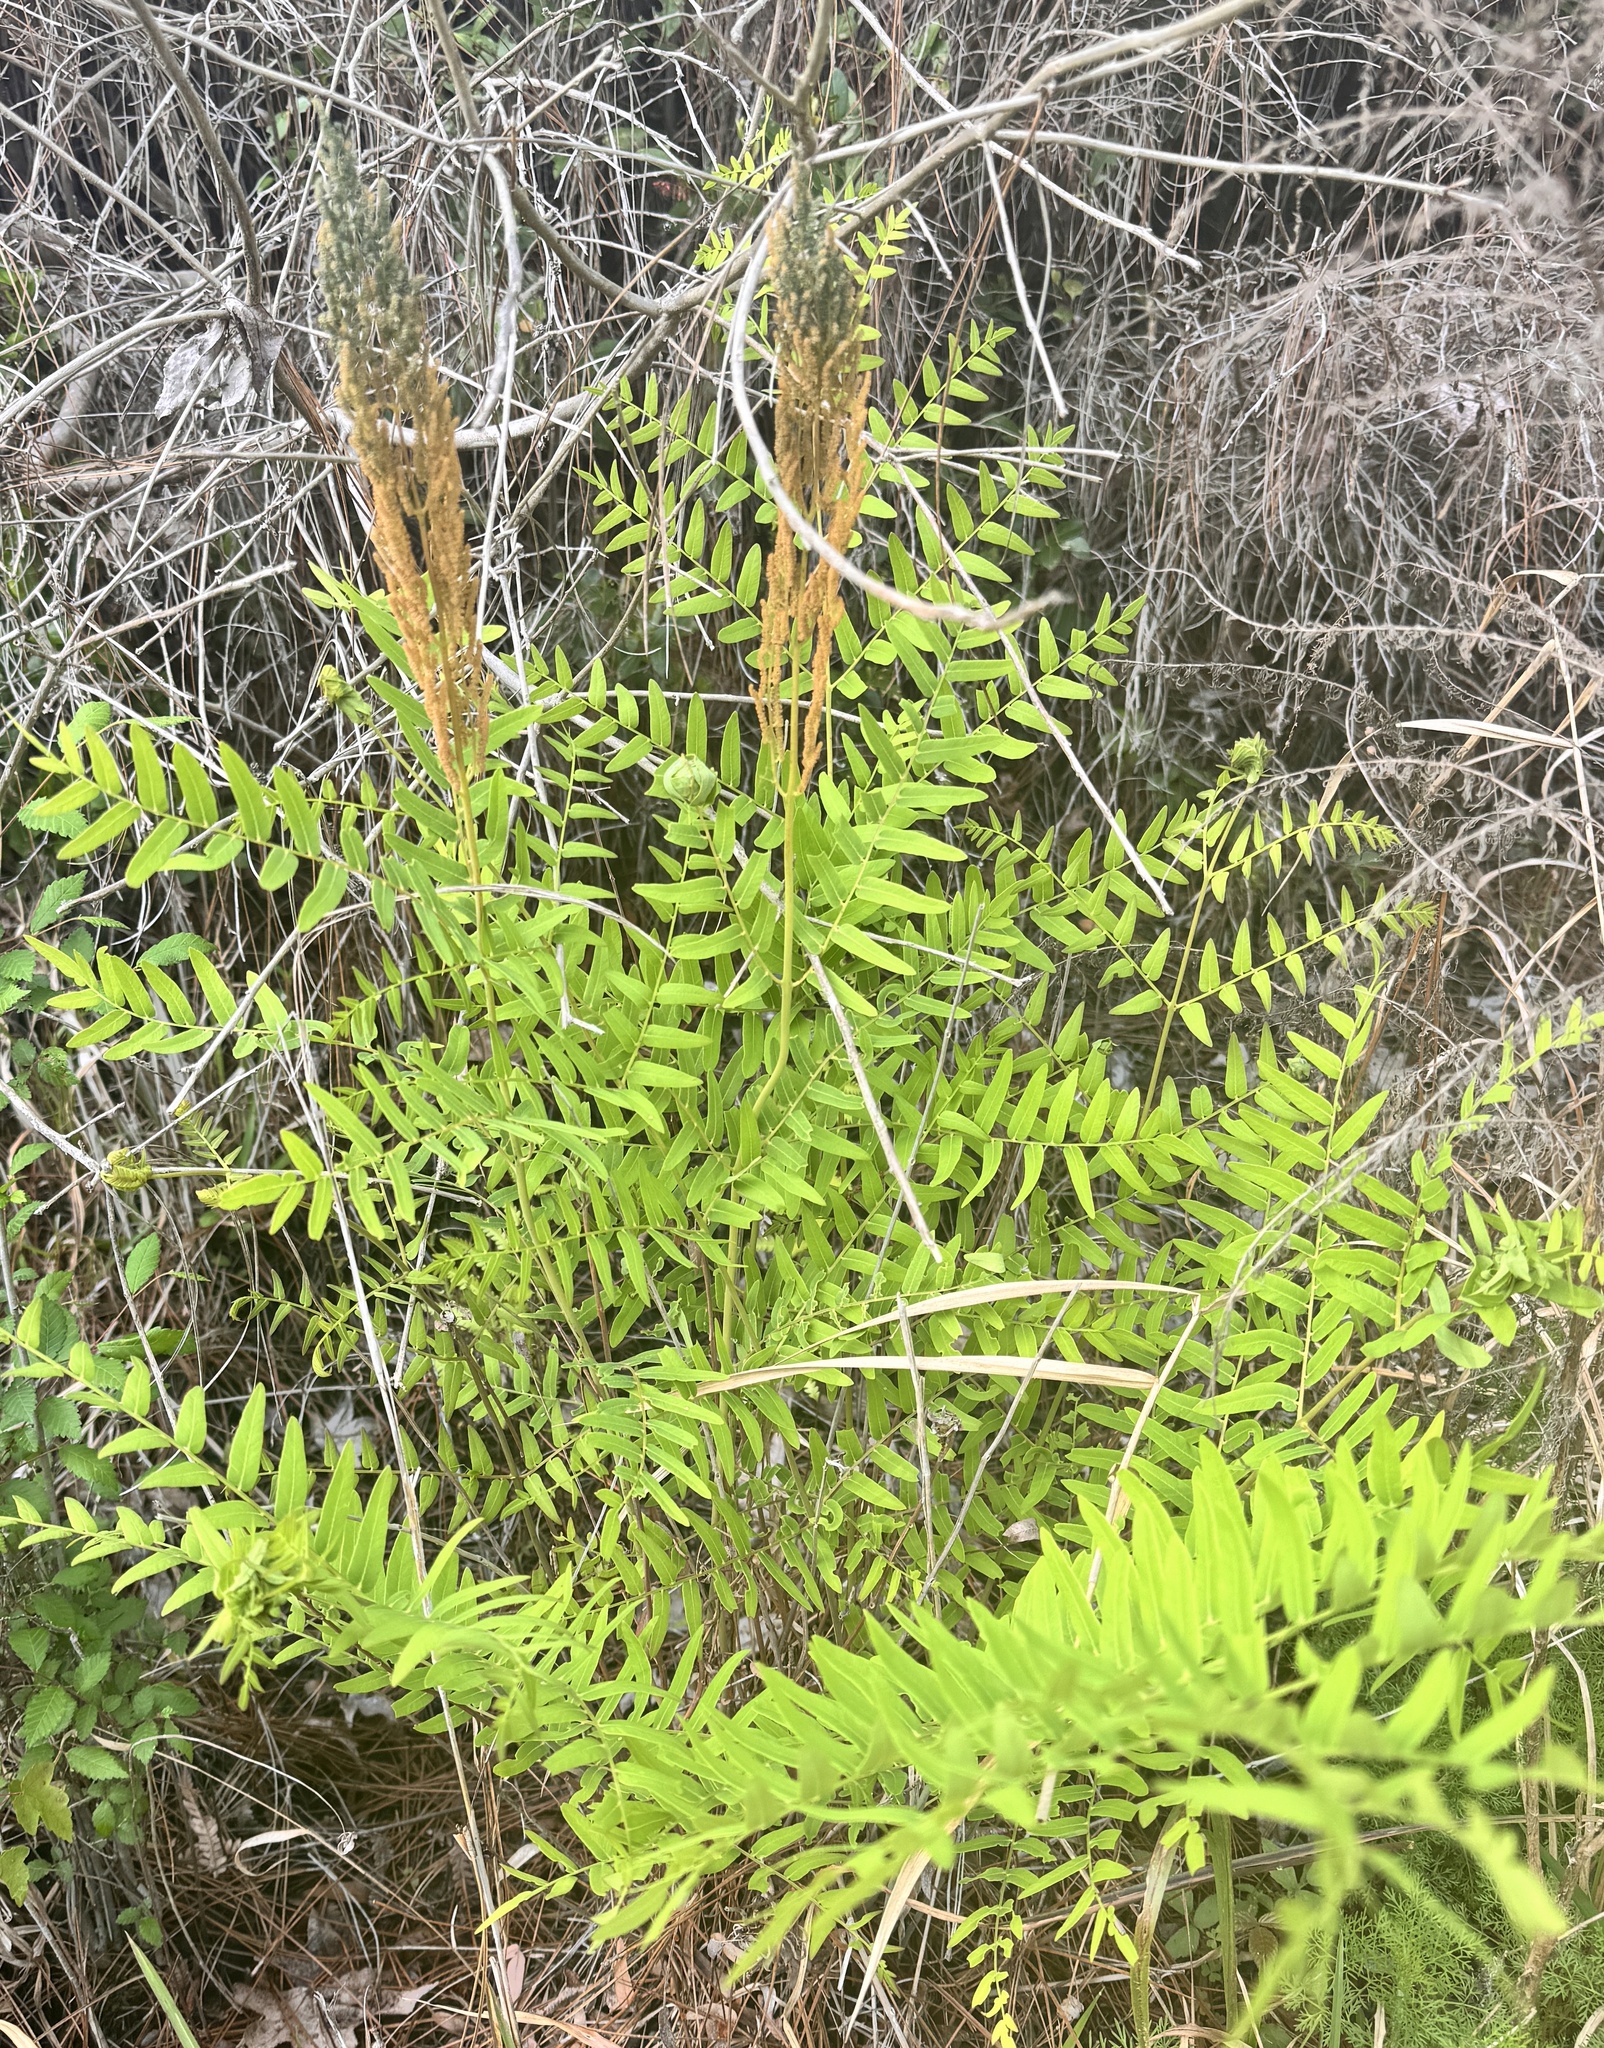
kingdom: Plantae
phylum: Tracheophyta
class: Polypodiopsida
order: Osmundales
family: Osmundaceae
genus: Osmunda
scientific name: Osmunda spectabilis
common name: American royal fern
